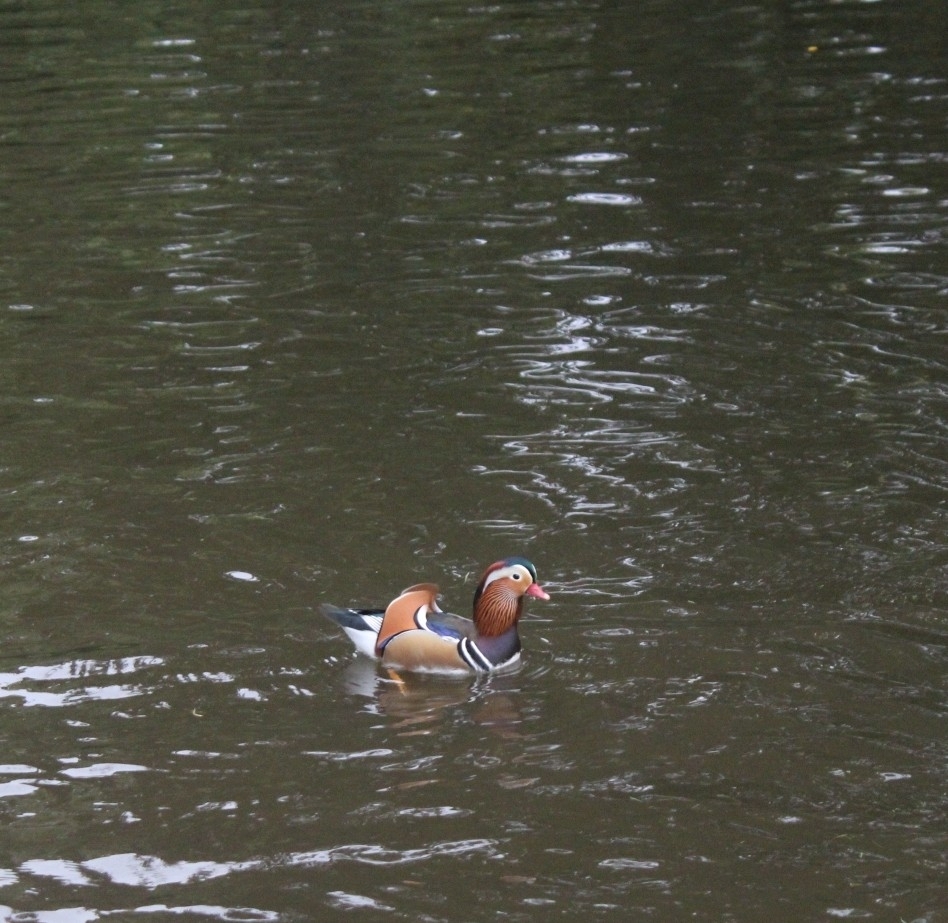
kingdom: Animalia
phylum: Chordata
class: Aves
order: Anseriformes
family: Anatidae
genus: Aix
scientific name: Aix galericulata
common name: Mandarin duck
